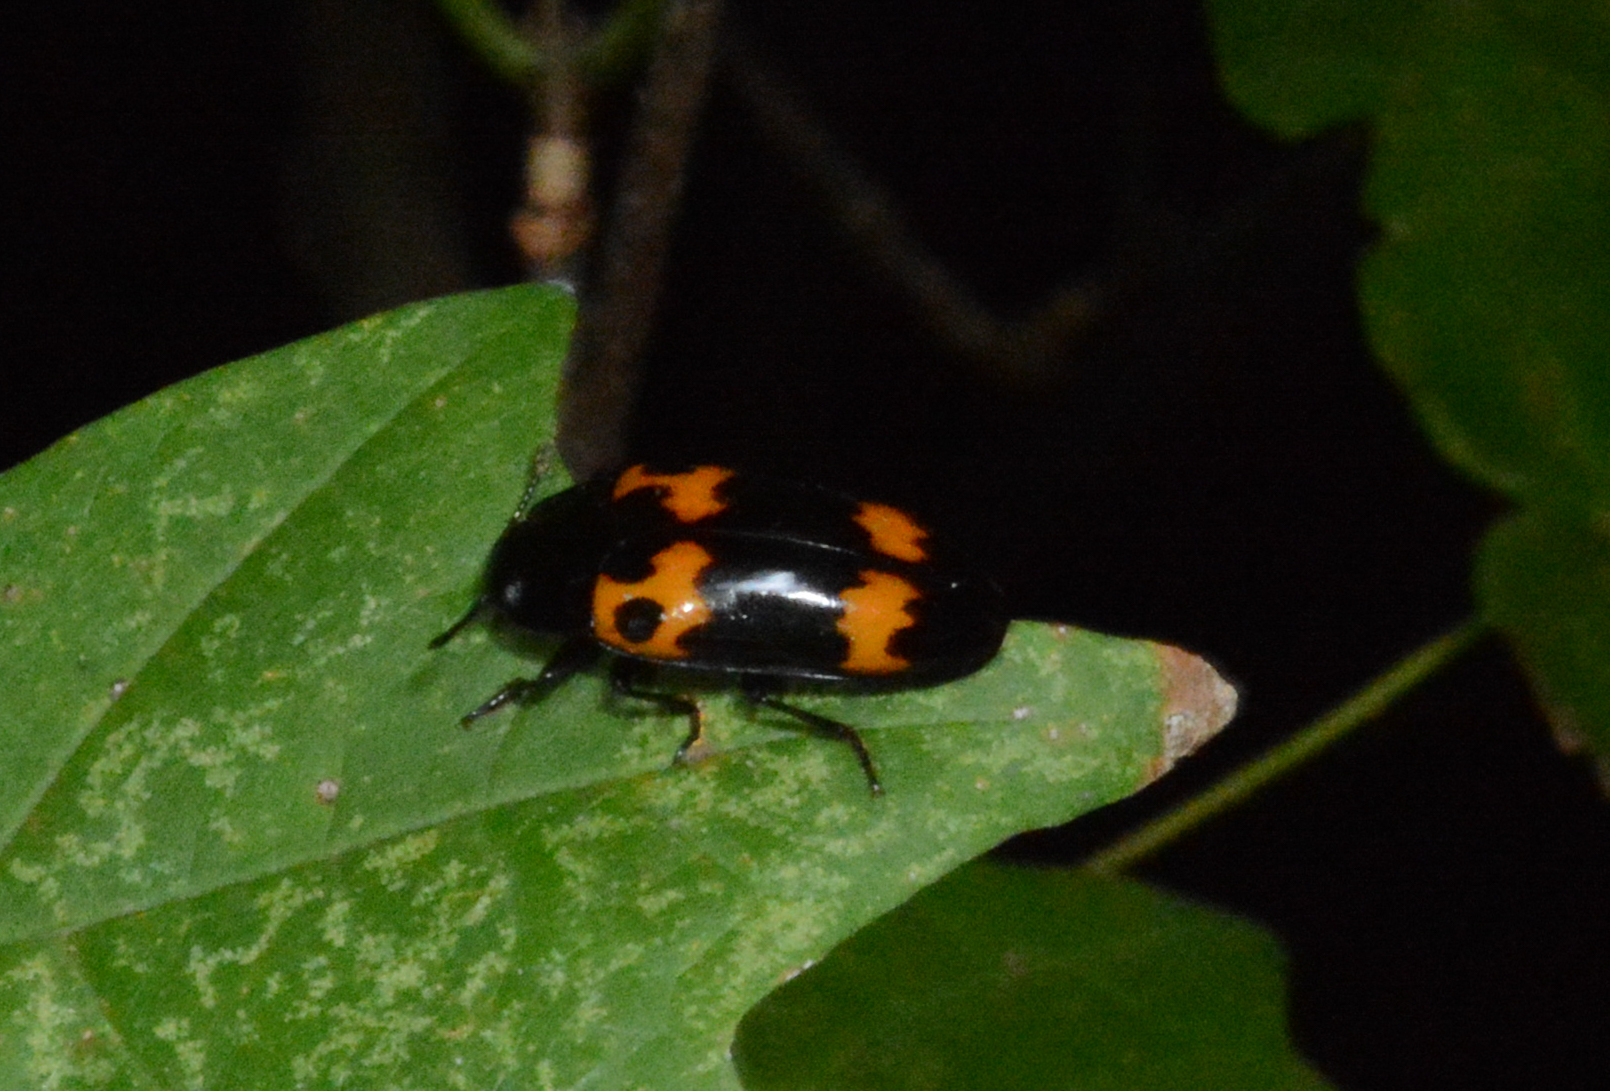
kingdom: Animalia
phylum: Arthropoda
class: Insecta
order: Coleoptera
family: Erotylidae
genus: Megalodacne
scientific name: Megalodacne fasciata
